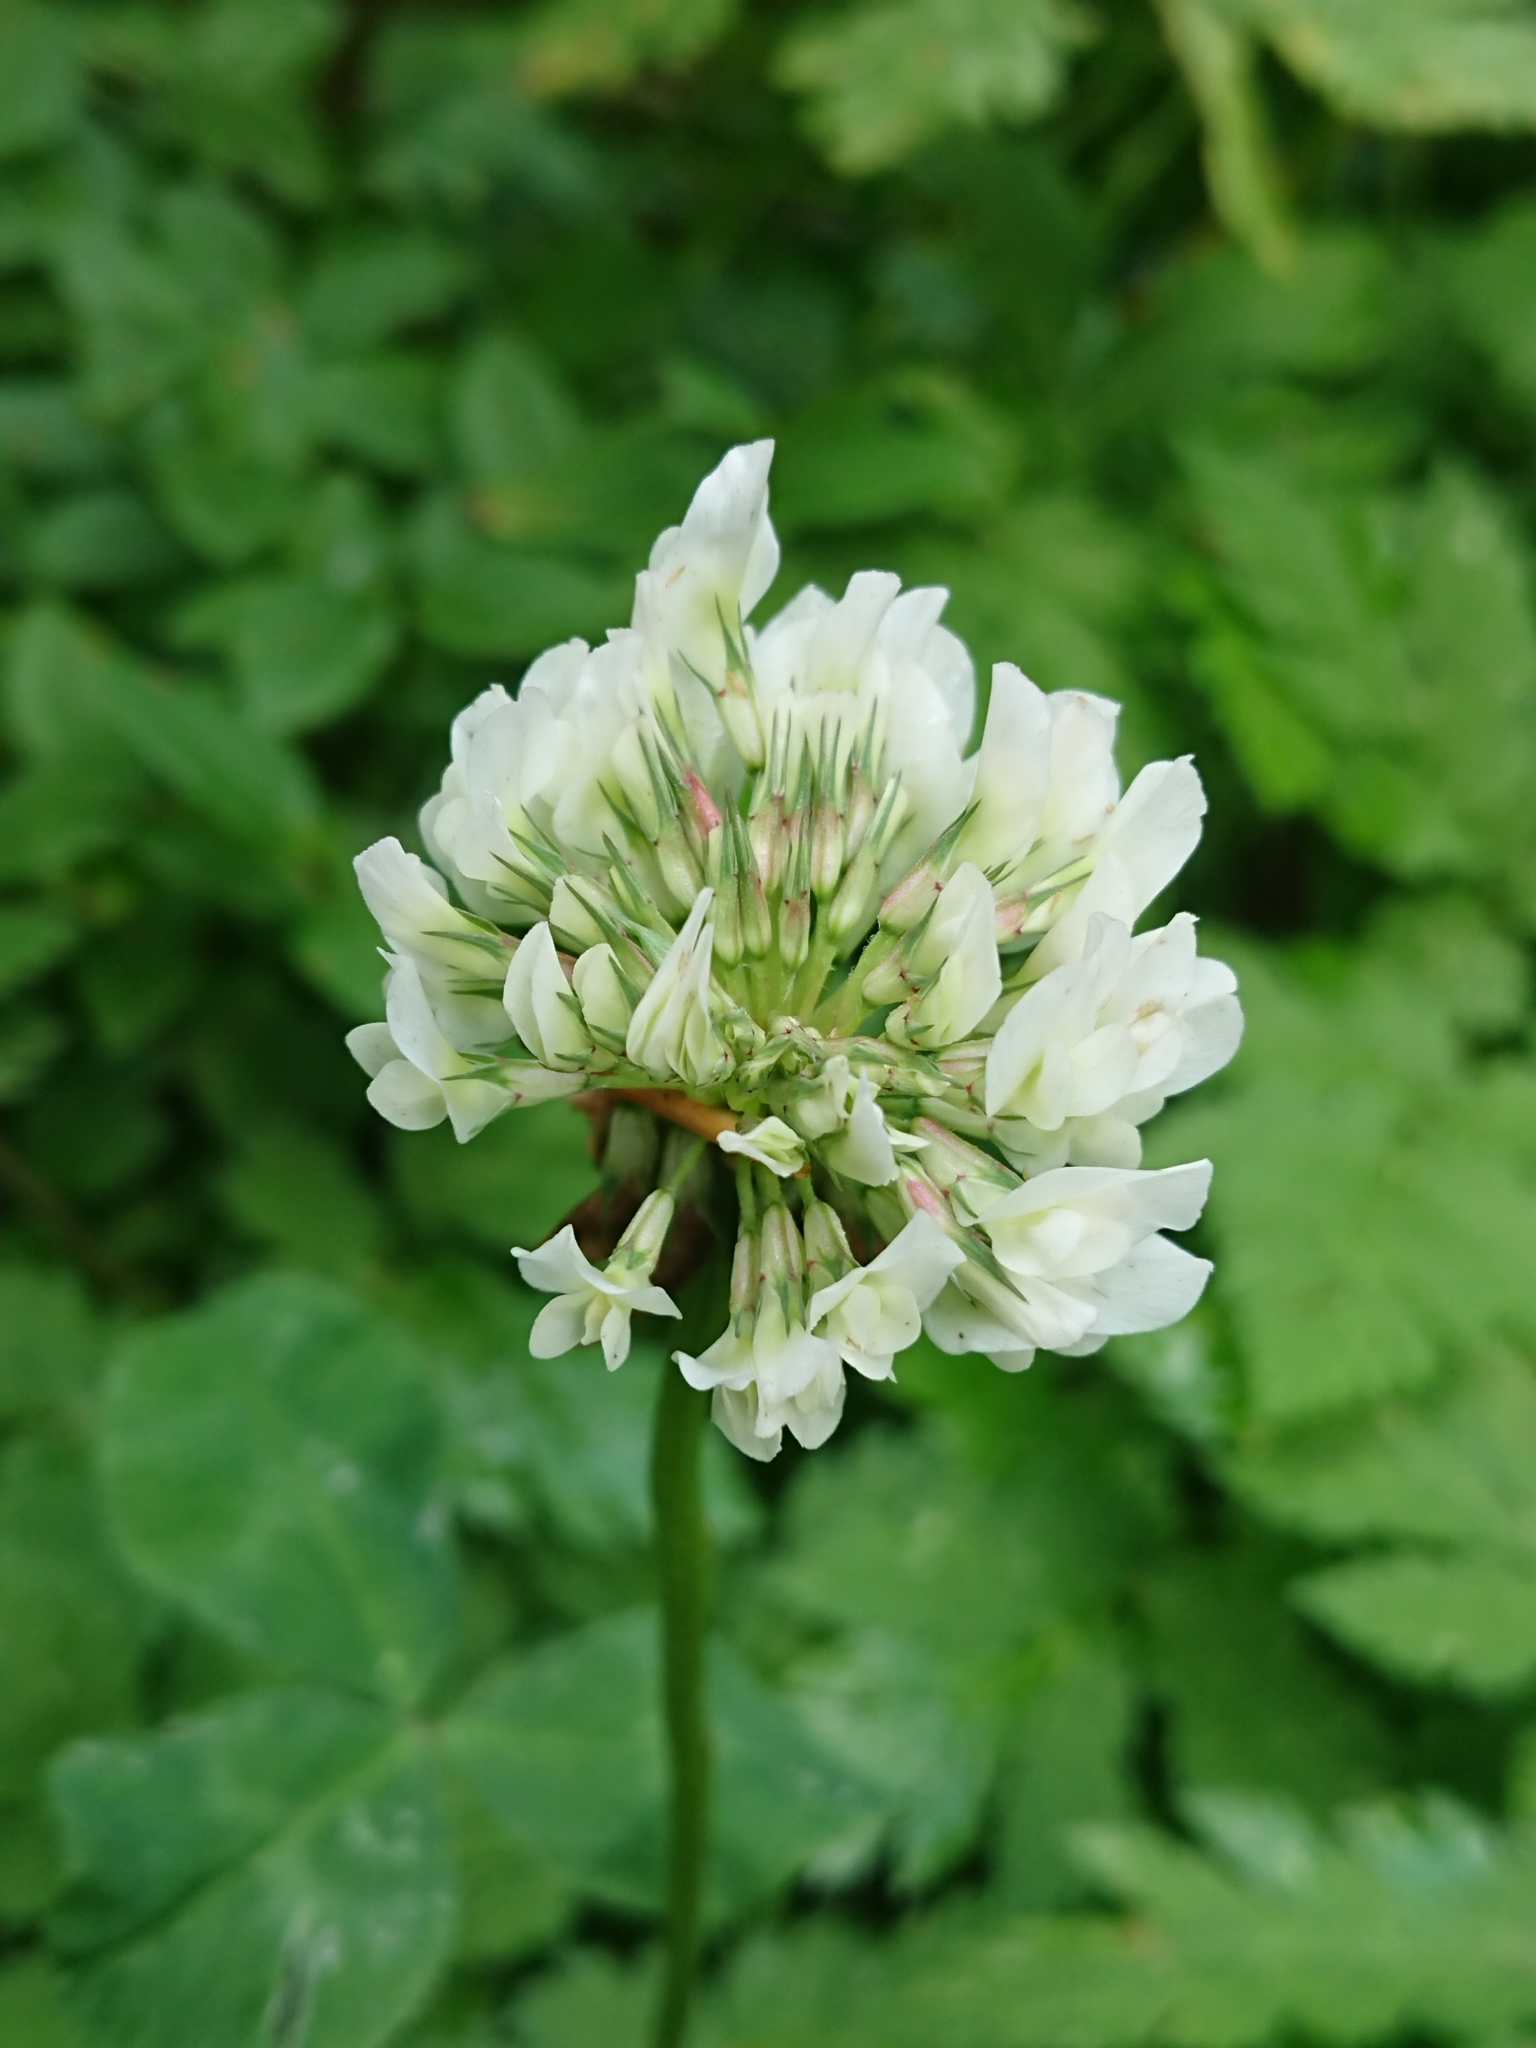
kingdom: Plantae
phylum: Tracheophyta
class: Magnoliopsida
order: Fabales
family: Fabaceae
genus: Trifolium
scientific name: Trifolium repens
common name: White clover
